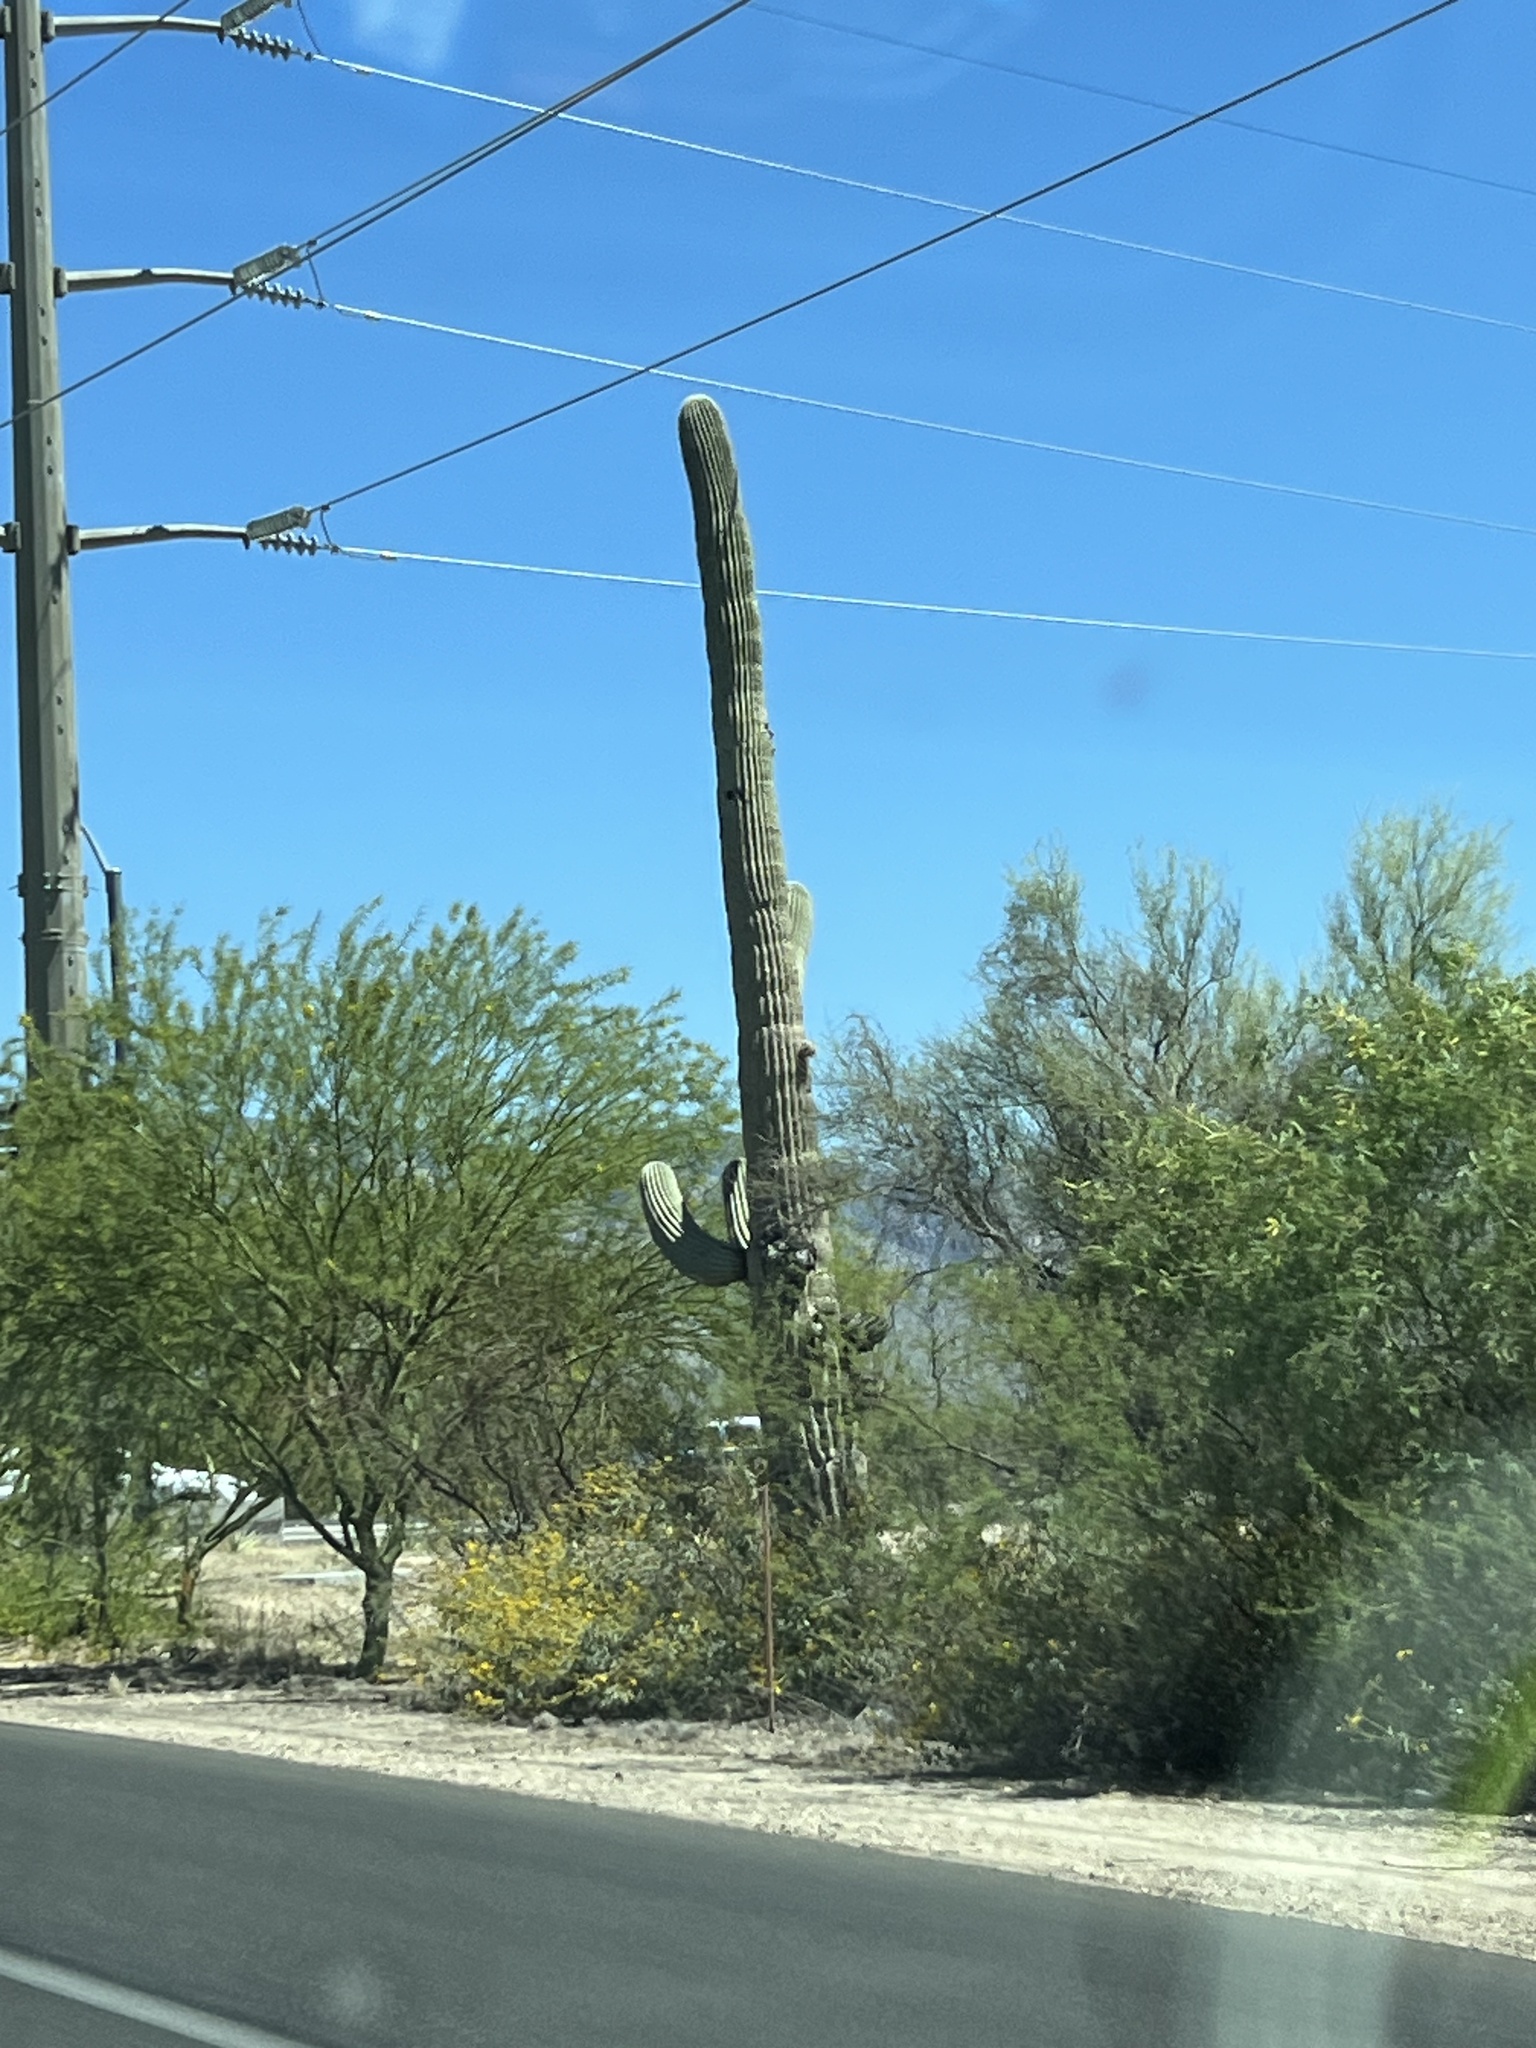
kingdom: Plantae
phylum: Tracheophyta
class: Magnoliopsida
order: Caryophyllales
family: Cactaceae
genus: Carnegiea
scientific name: Carnegiea gigantea
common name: Saguaro
